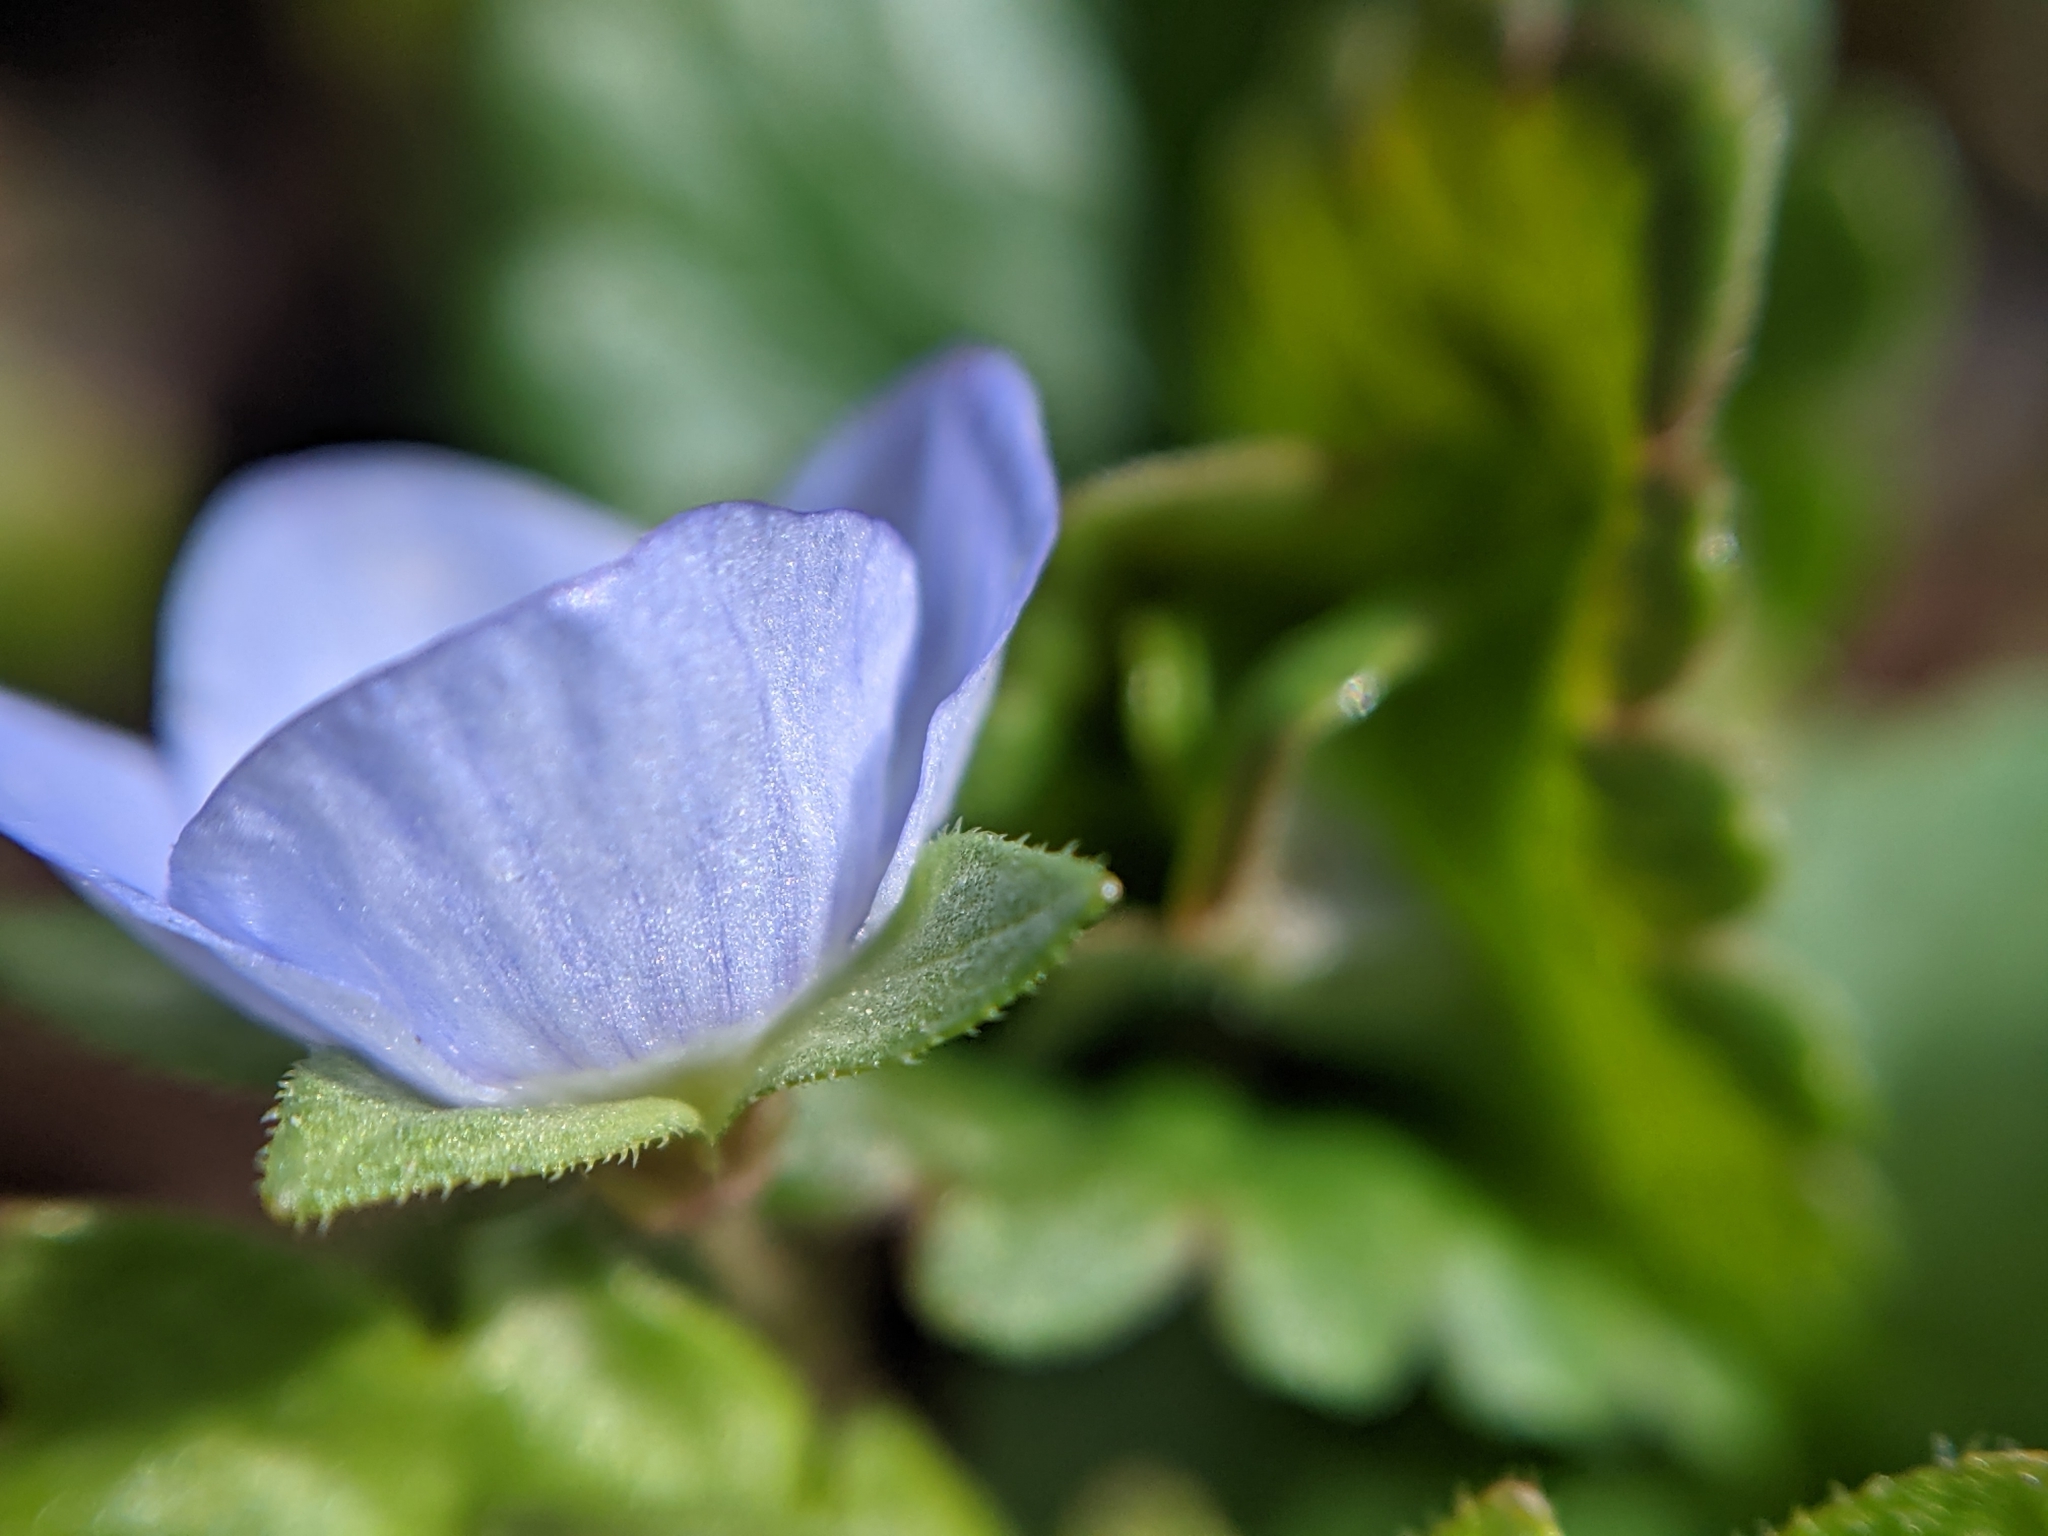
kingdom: Plantae
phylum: Tracheophyta
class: Magnoliopsida
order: Lamiales
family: Plantaginaceae
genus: Veronica
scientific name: Veronica persica
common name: Common field-speedwell
